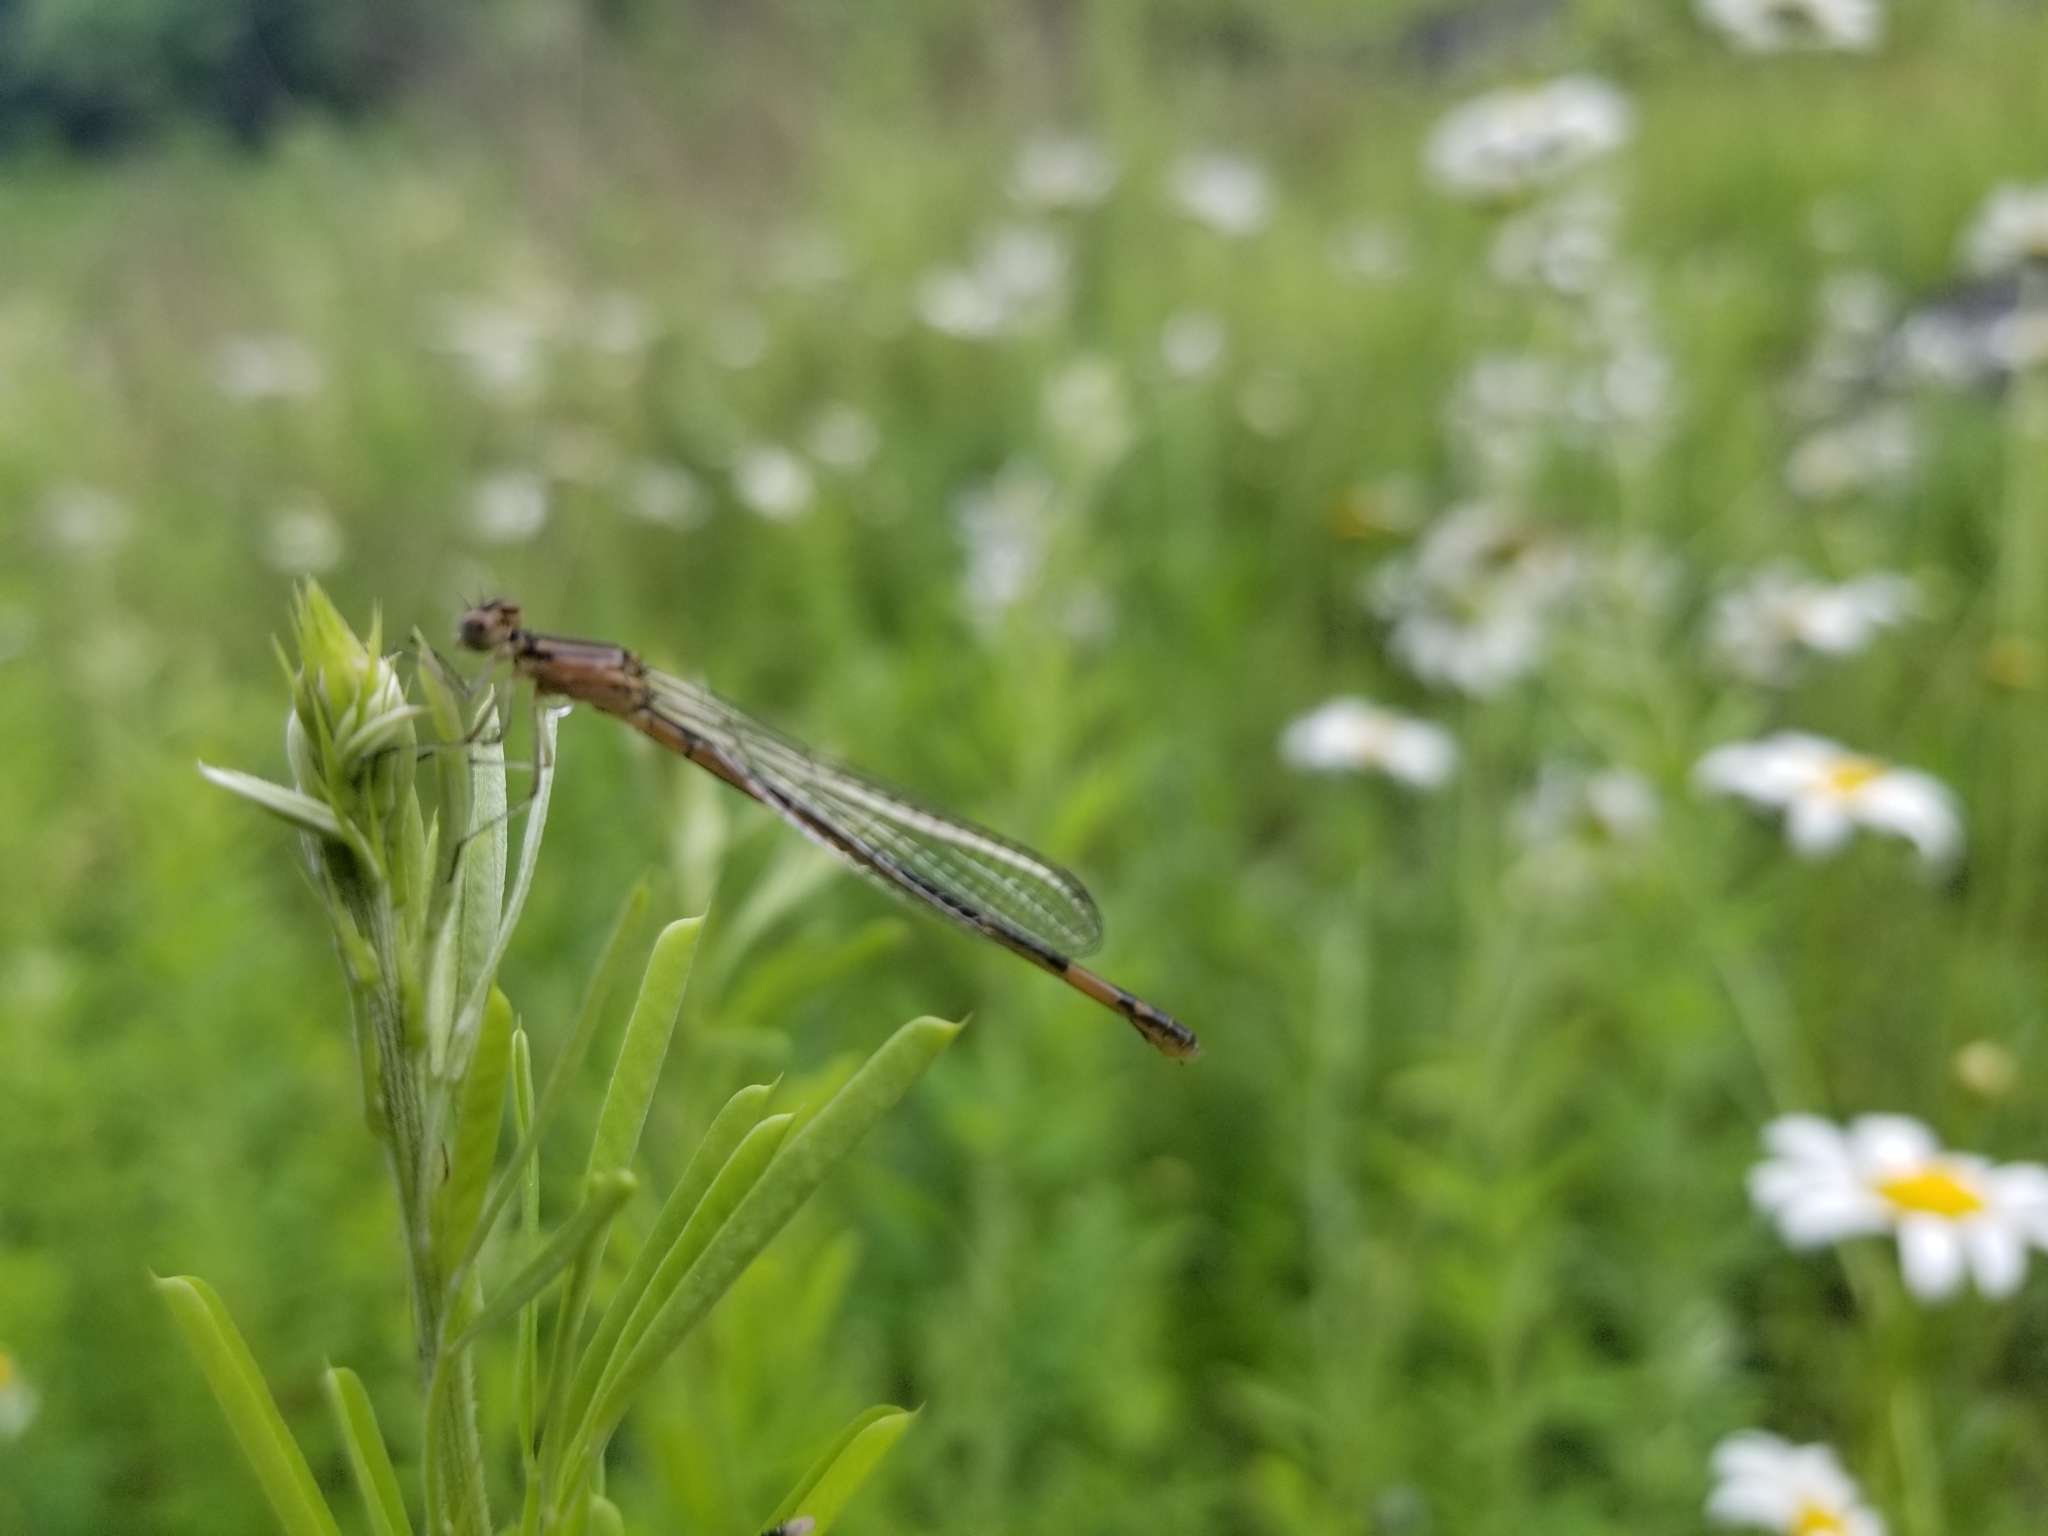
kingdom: Animalia
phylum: Arthropoda
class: Insecta
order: Odonata
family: Coenagrionidae
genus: Enallagma
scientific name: Enallagma aspersum
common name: Azure bluet
